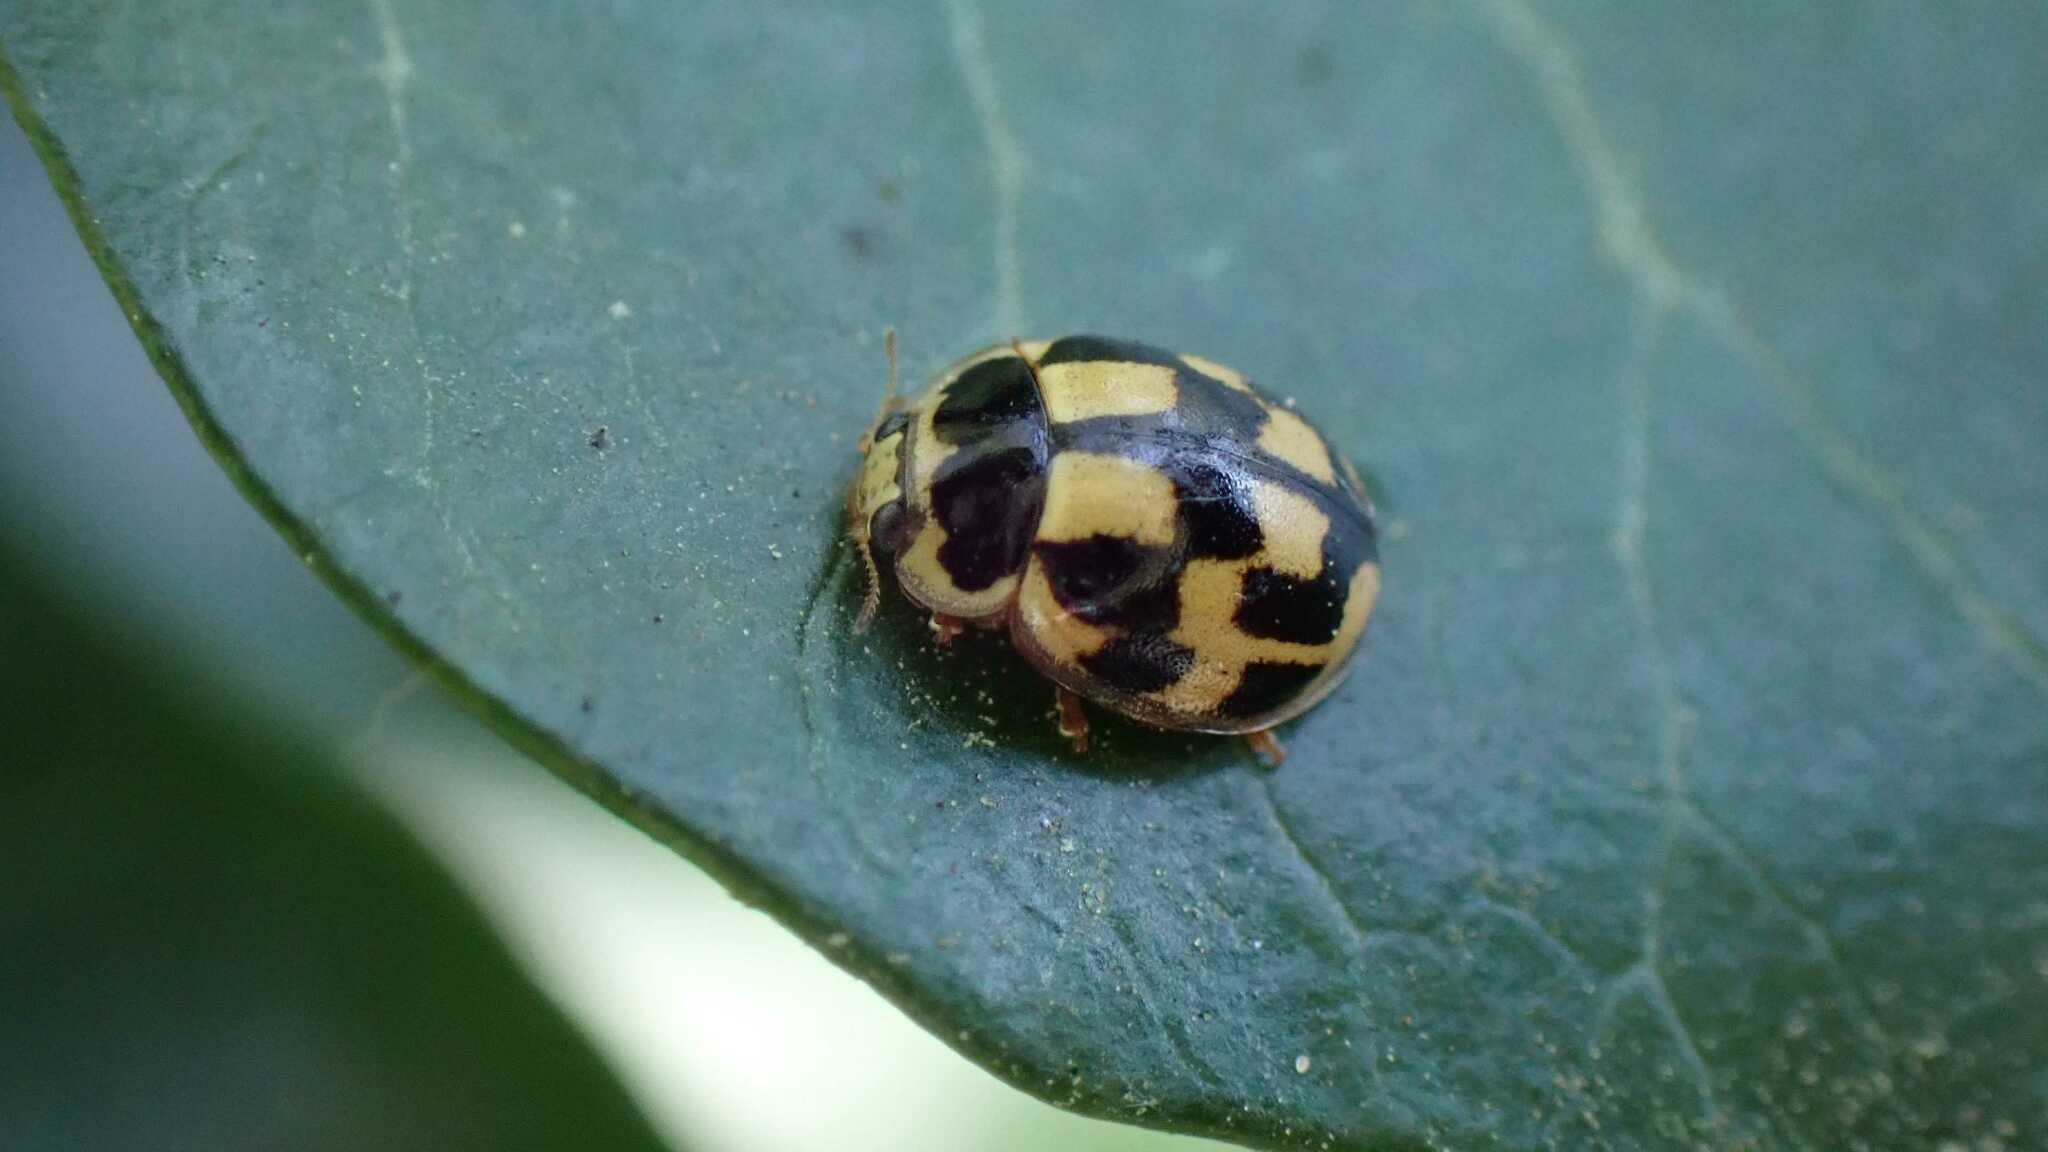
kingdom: Animalia
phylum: Arthropoda
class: Insecta
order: Coleoptera
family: Coccinellidae
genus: Propylaea
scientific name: Propylaea quatuordecimpunctata
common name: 14-spotted ladybird beetle
